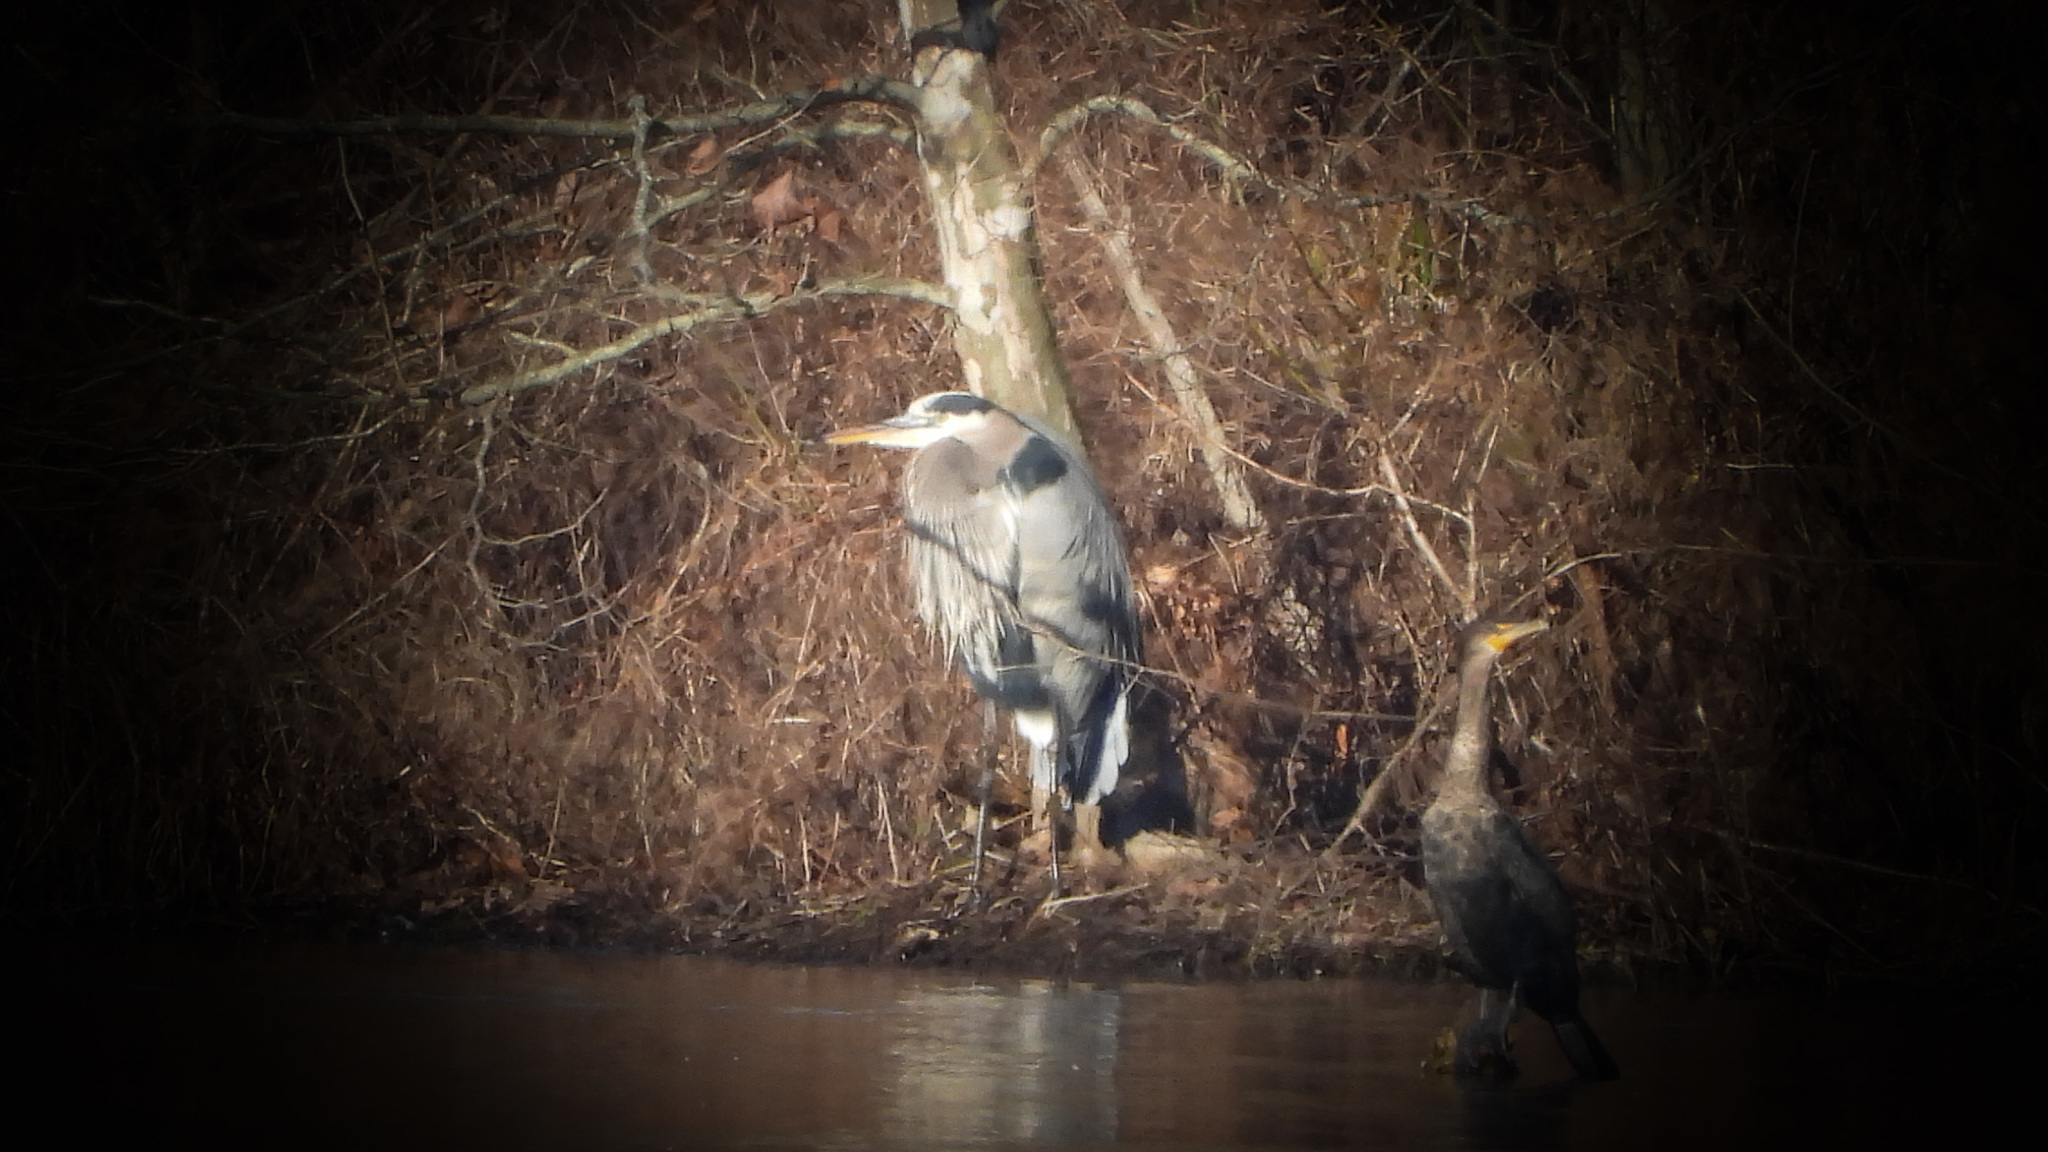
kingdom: Animalia
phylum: Chordata
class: Aves
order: Pelecaniformes
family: Ardeidae
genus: Ardea
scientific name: Ardea herodias
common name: Great blue heron
